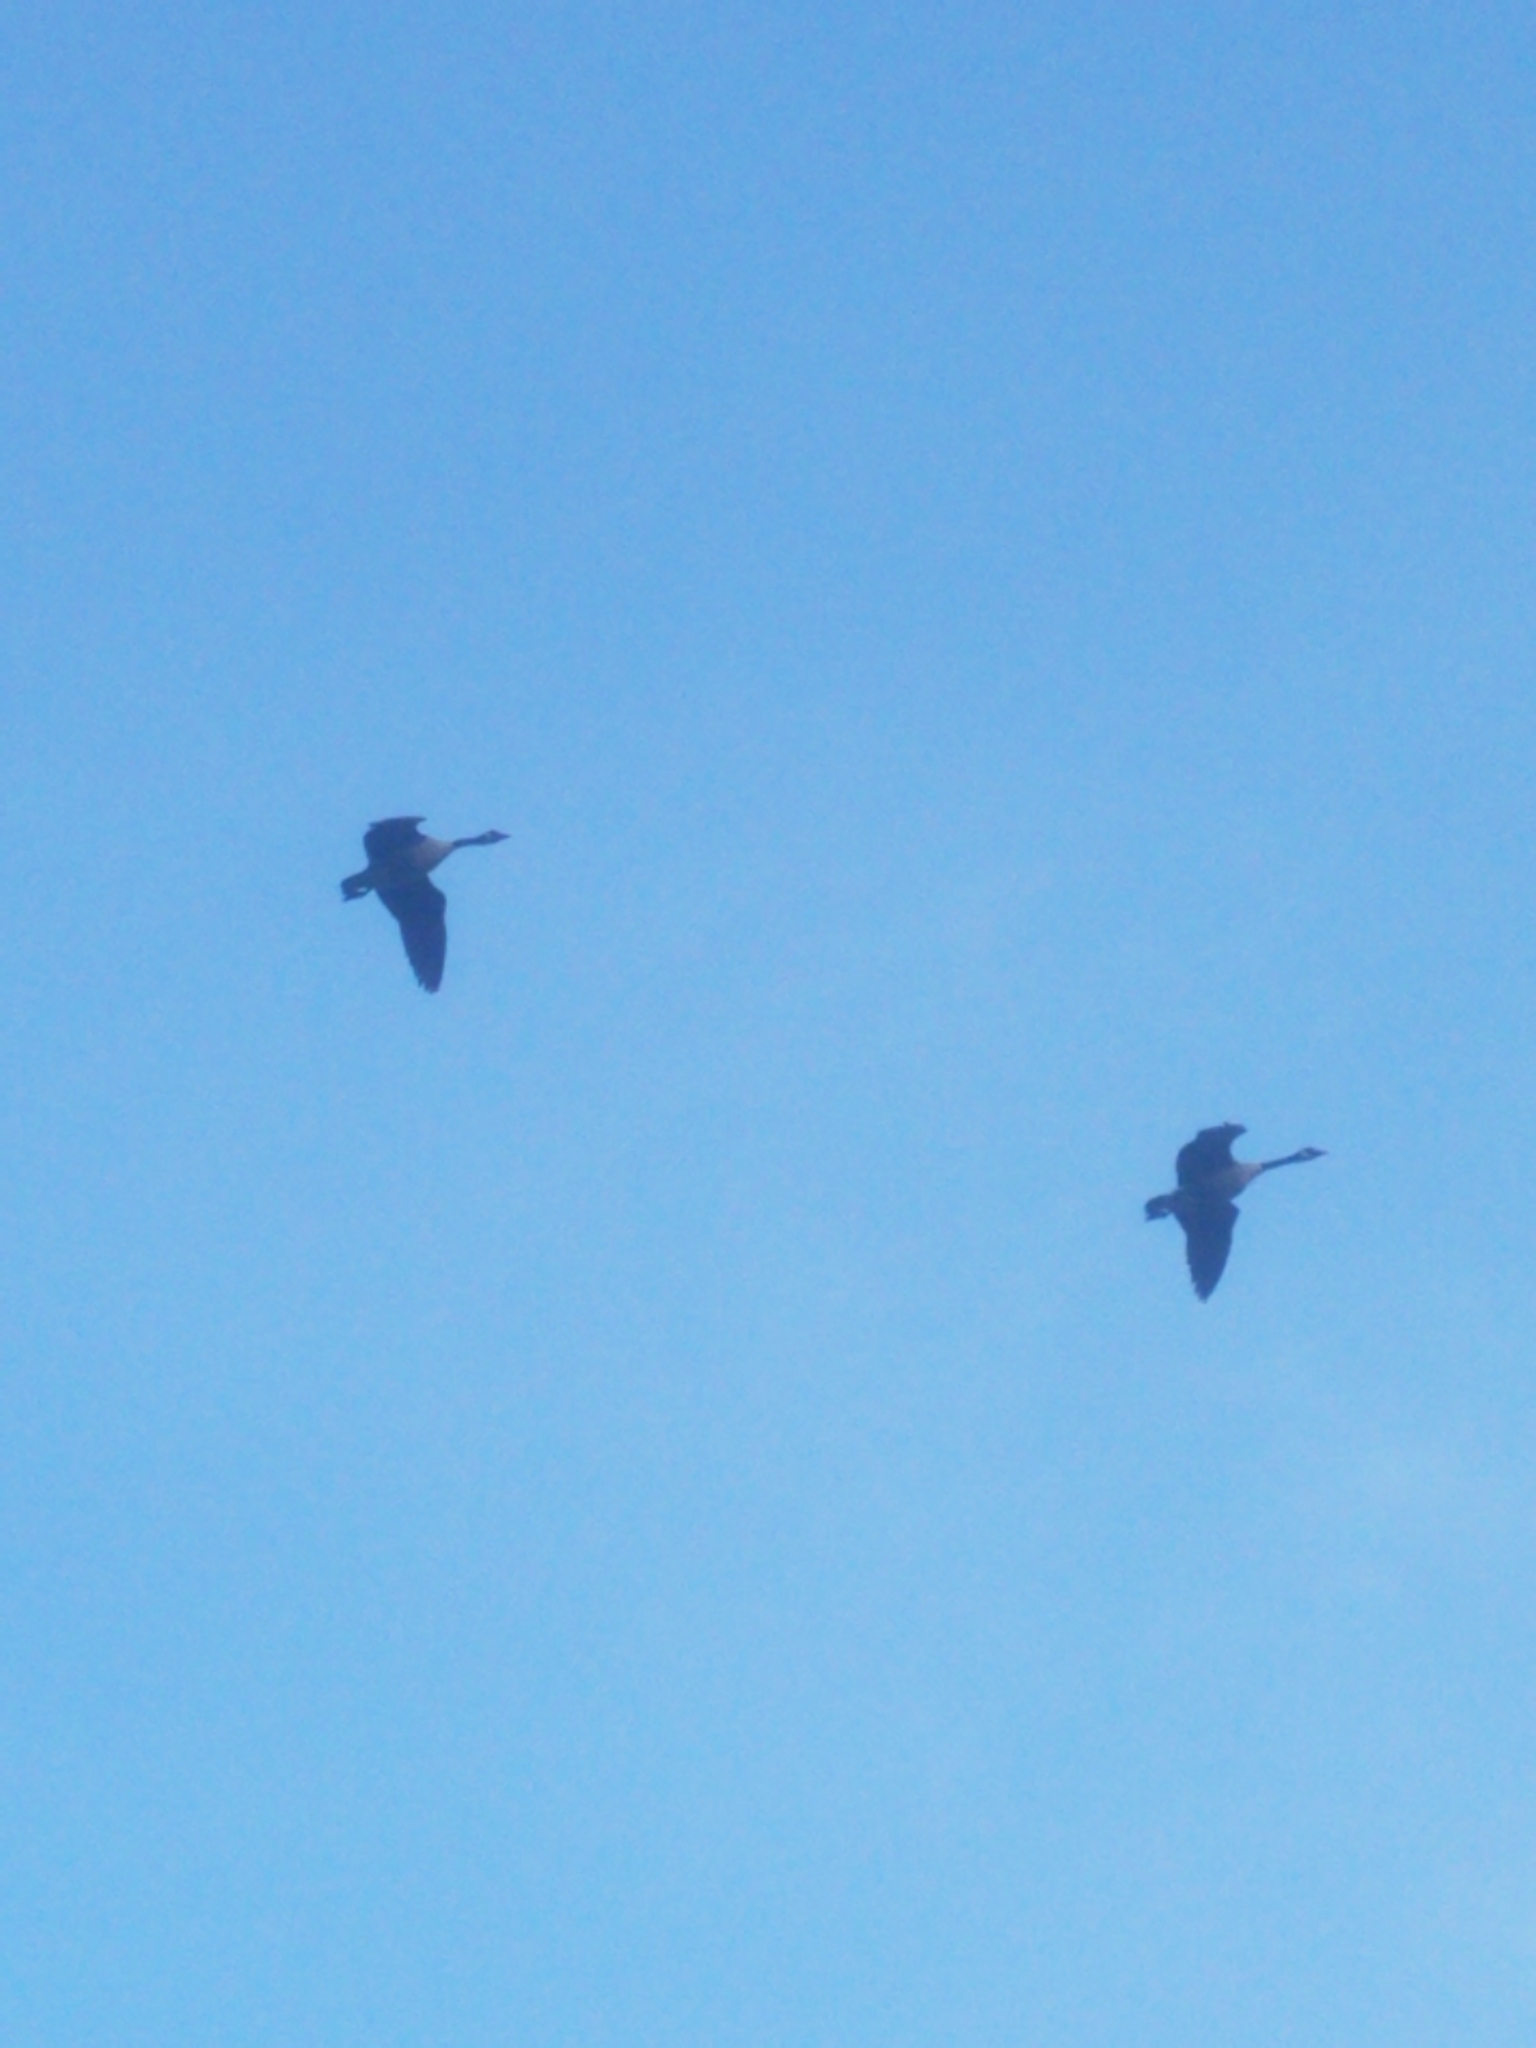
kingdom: Animalia
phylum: Chordata
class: Aves
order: Anseriformes
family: Anatidae
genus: Branta
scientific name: Branta canadensis
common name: Canada goose
